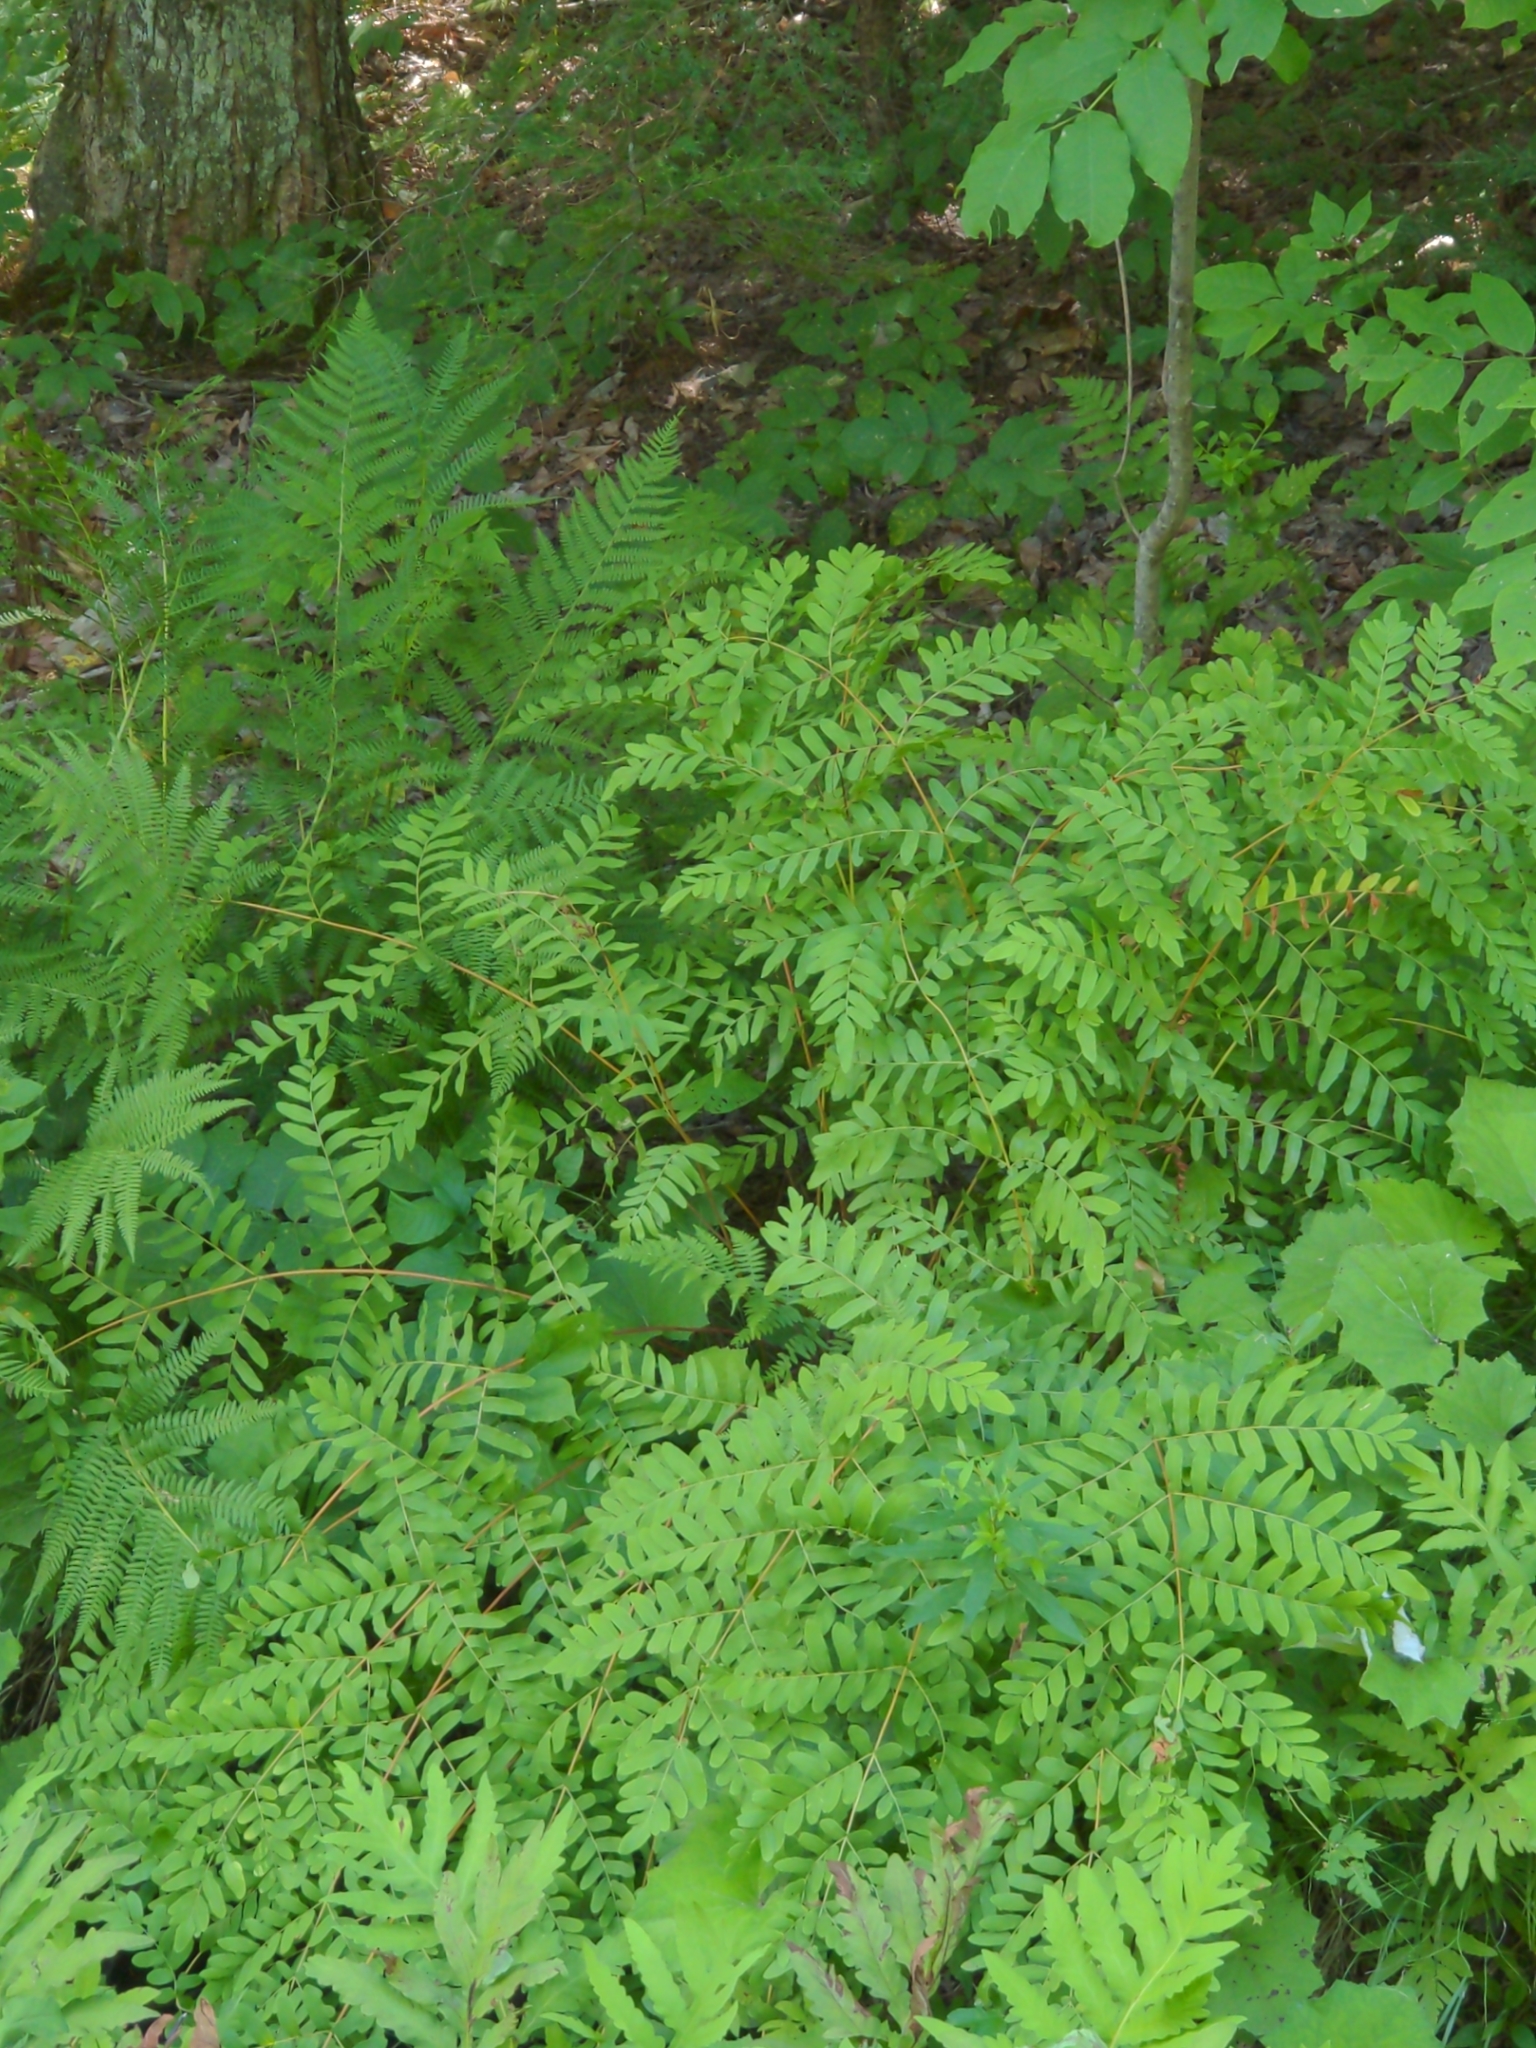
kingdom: Plantae
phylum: Tracheophyta
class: Polypodiopsida
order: Osmundales
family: Osmundaceae
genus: Osmunda
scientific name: Osmunda spectabilis
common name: American royal fern
